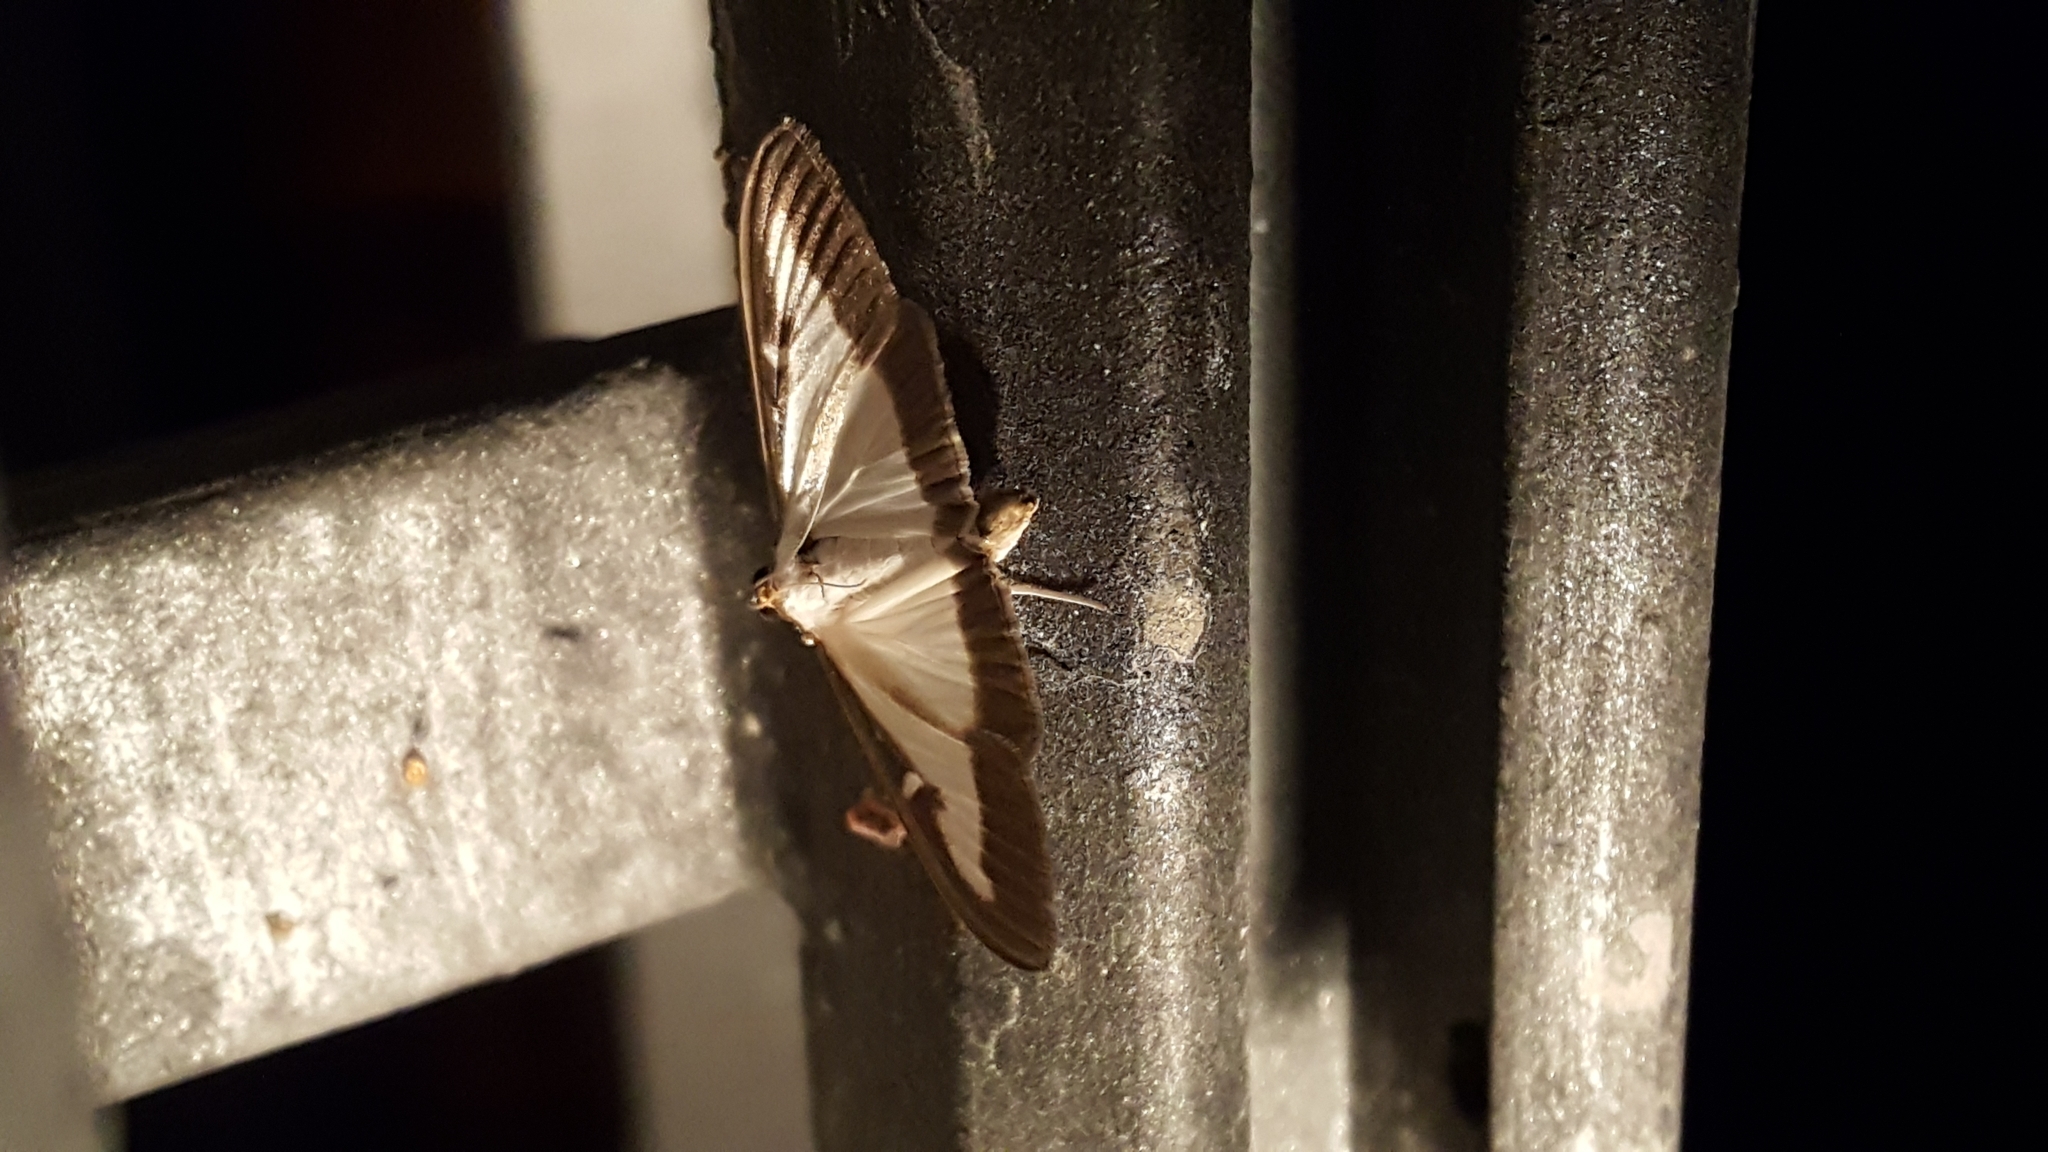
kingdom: Animalia
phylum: Arthropoda
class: Insecta
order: Lepidoptera
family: Crambidae
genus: Cydalima
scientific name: Cydalima perspectalis
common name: Box tree moth
